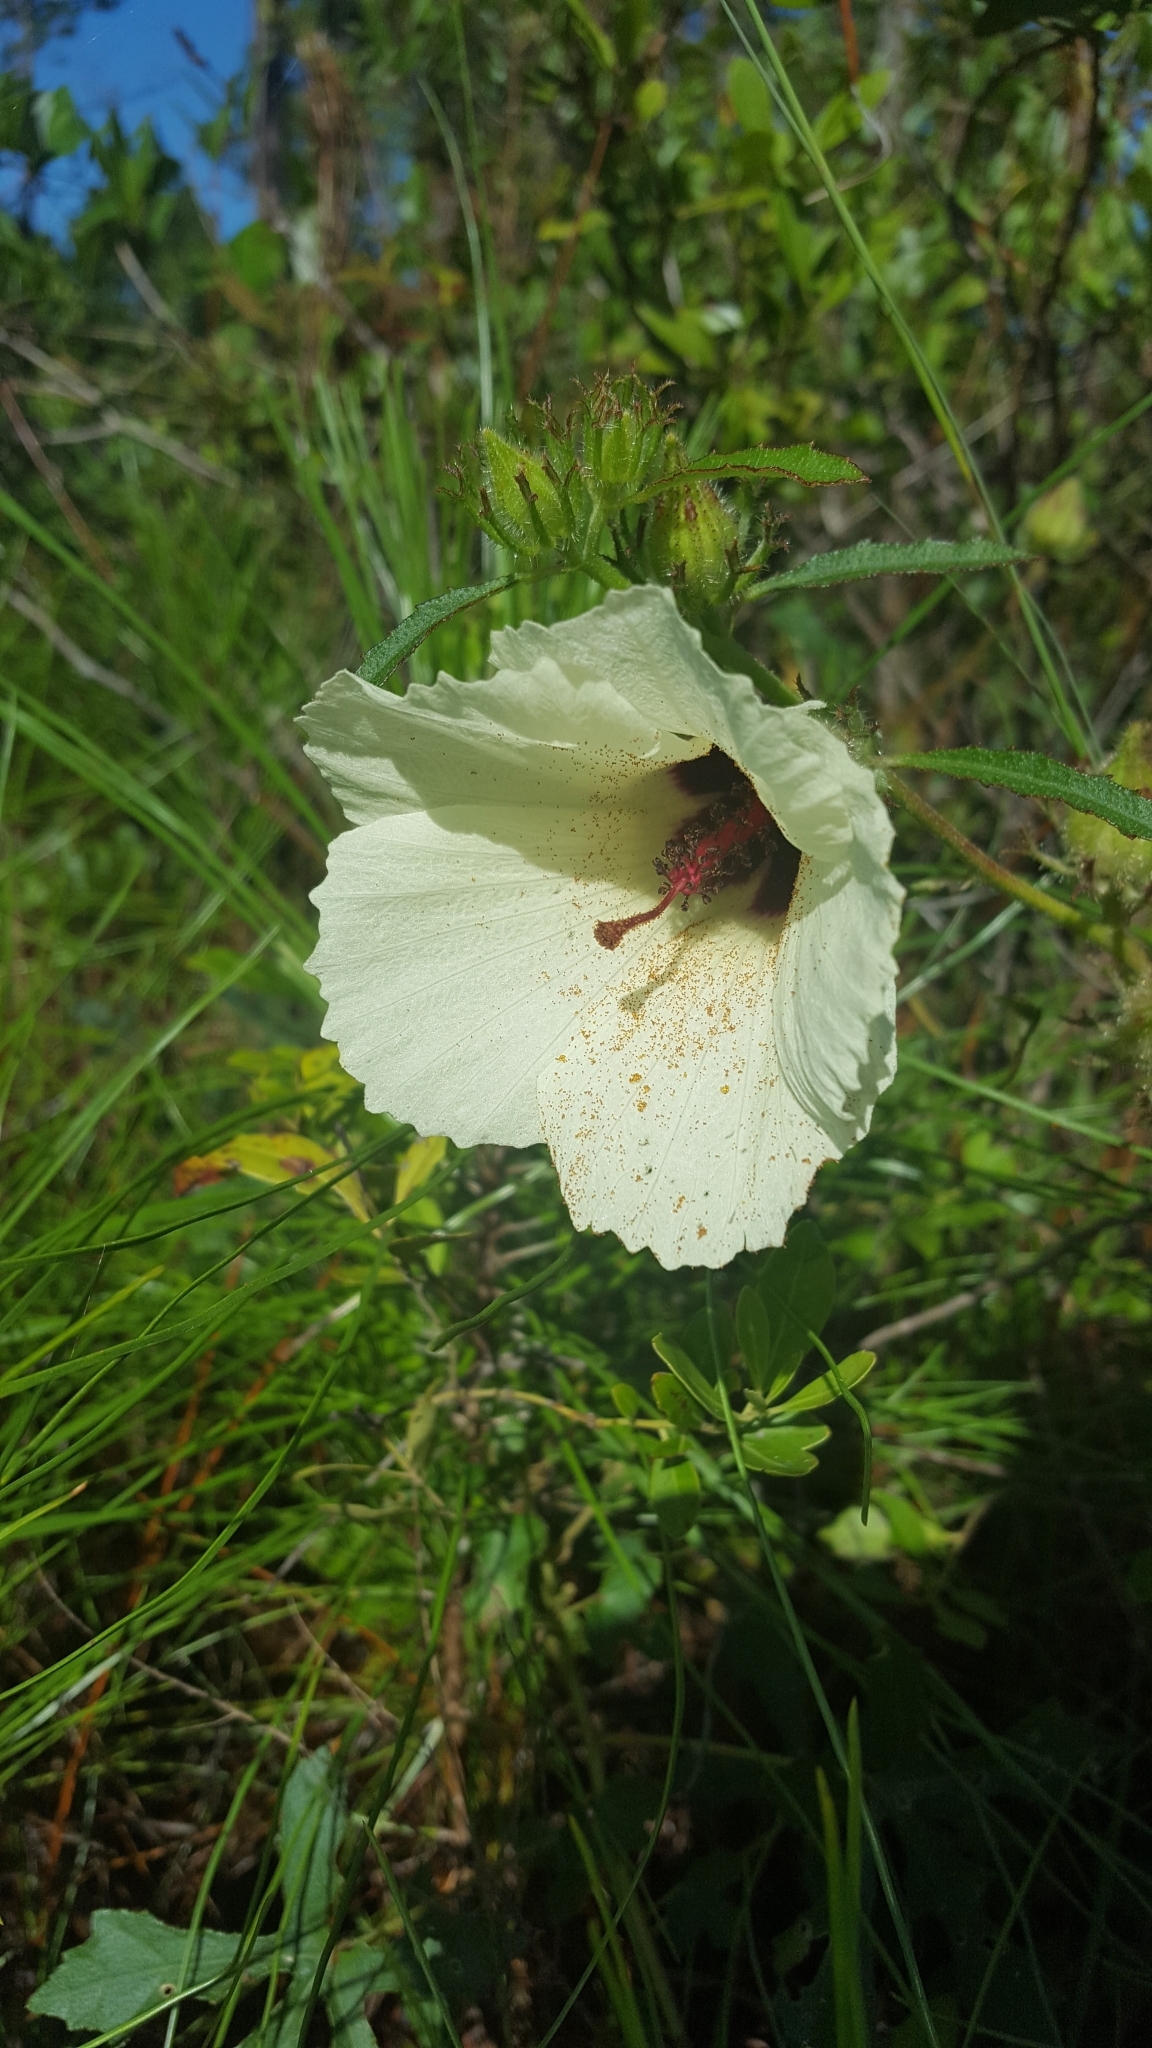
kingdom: Plantae
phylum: Tracheophyta
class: Magnoliopsida
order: Malvales
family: Malvaceae
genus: Hibiscus
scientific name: Hibiscus aculeatus
